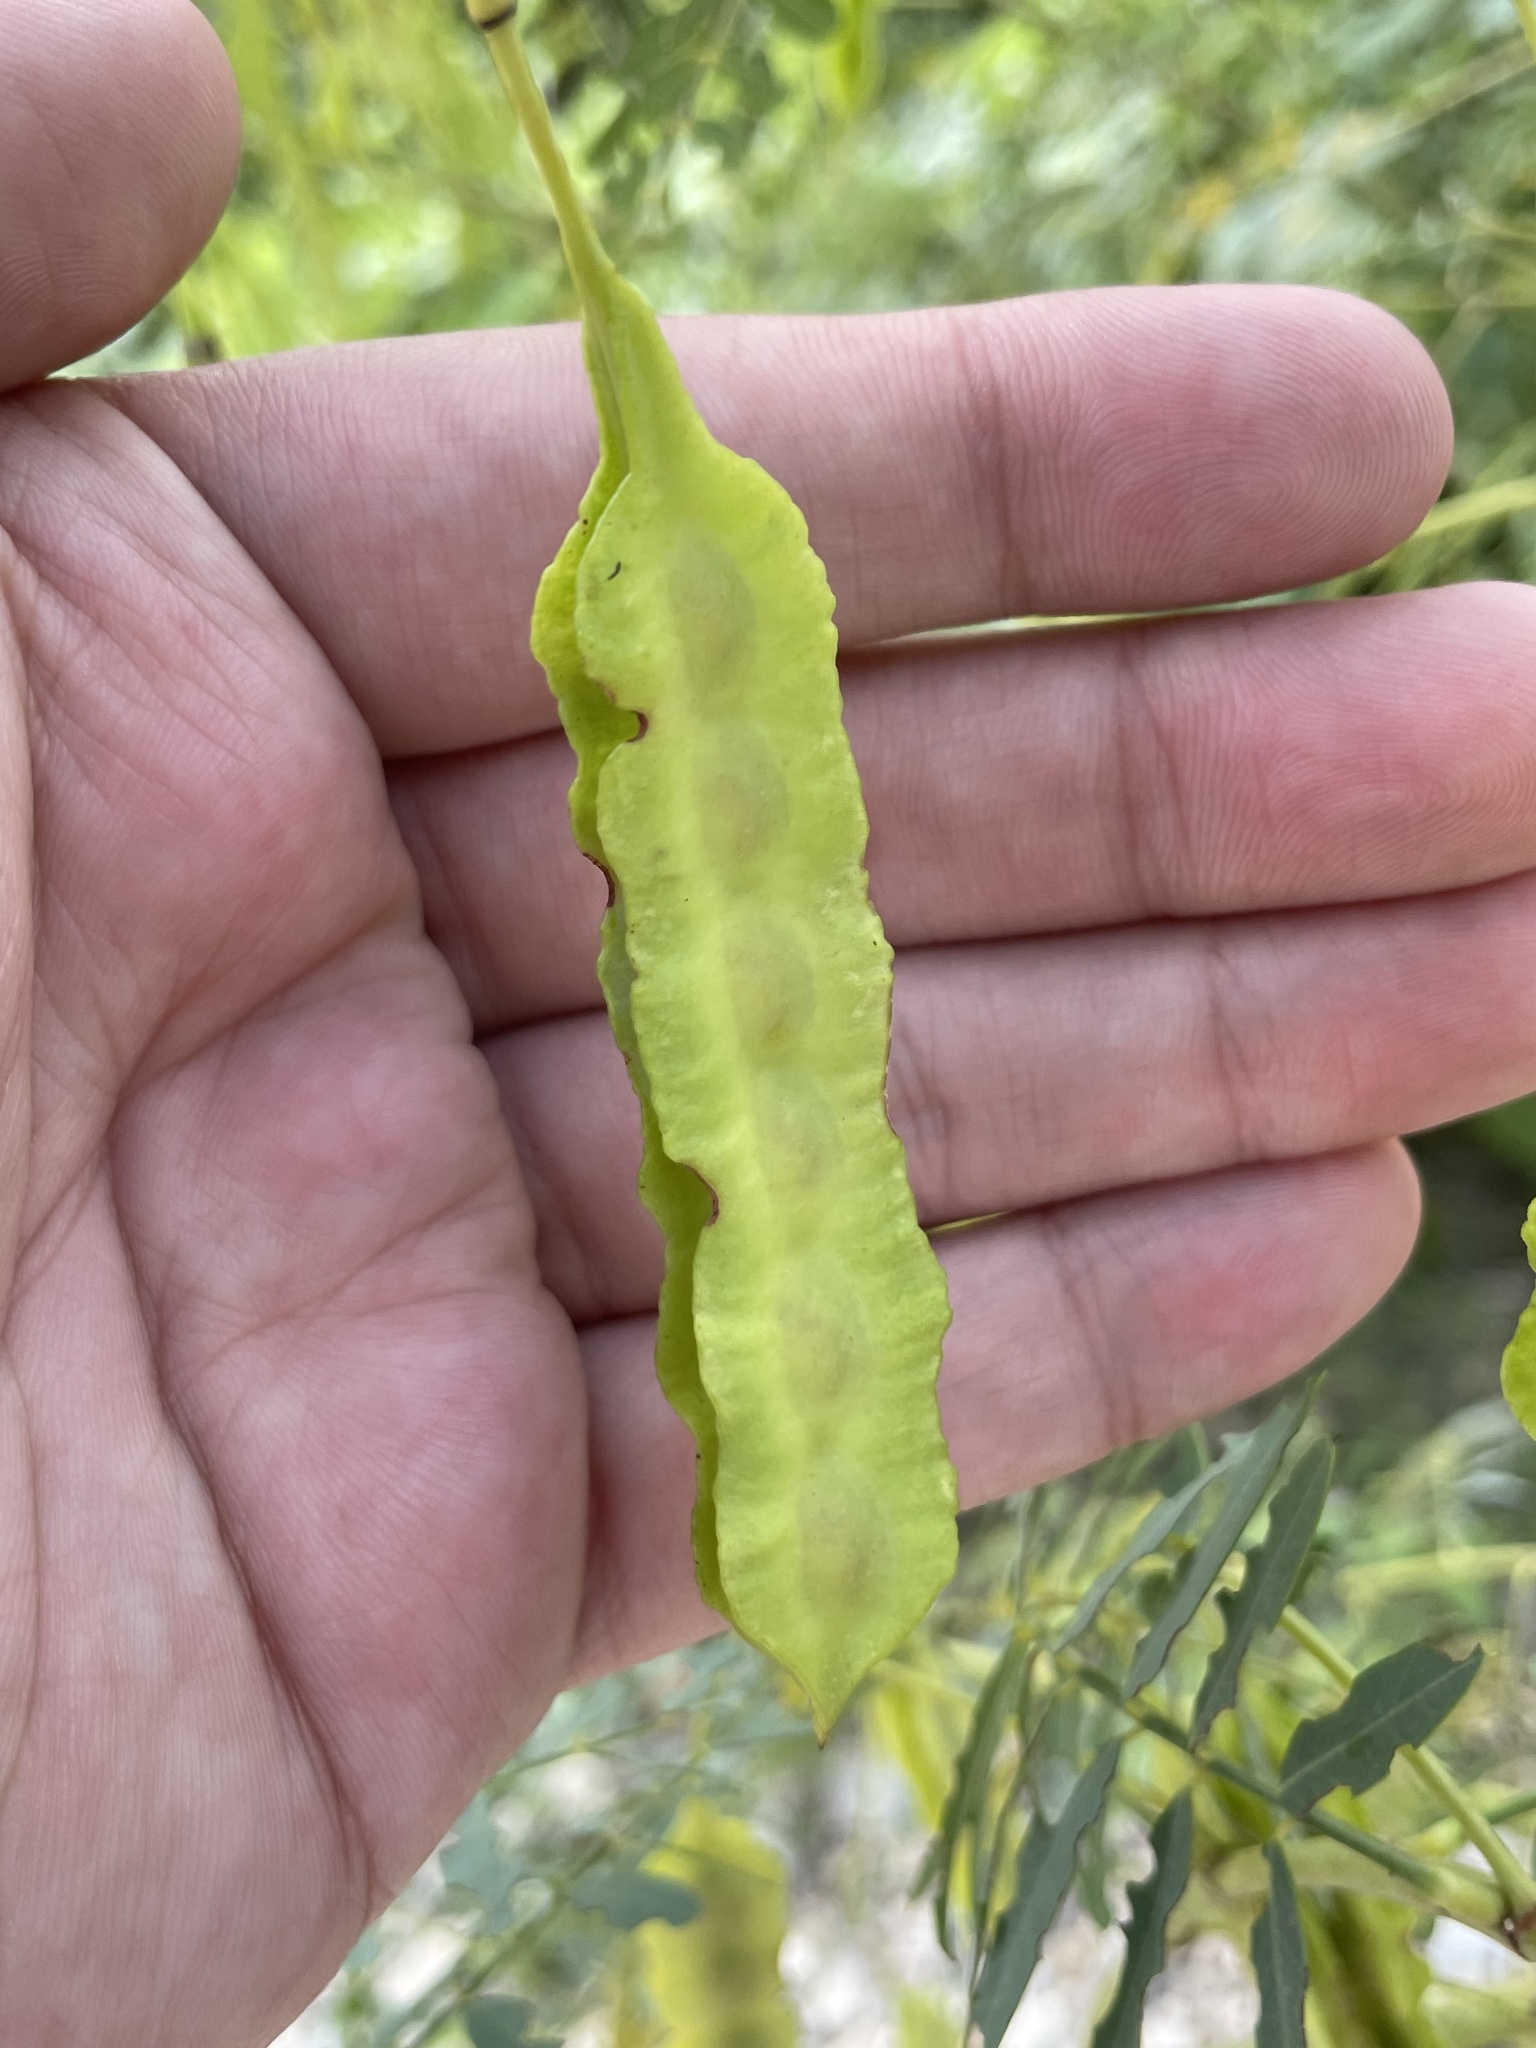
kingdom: Plantae
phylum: Tracheophyta
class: Magnoliopsida
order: Fabales
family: Fabaceae
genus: Sesbania
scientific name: Sesbania drummondii
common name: Poison-bean
